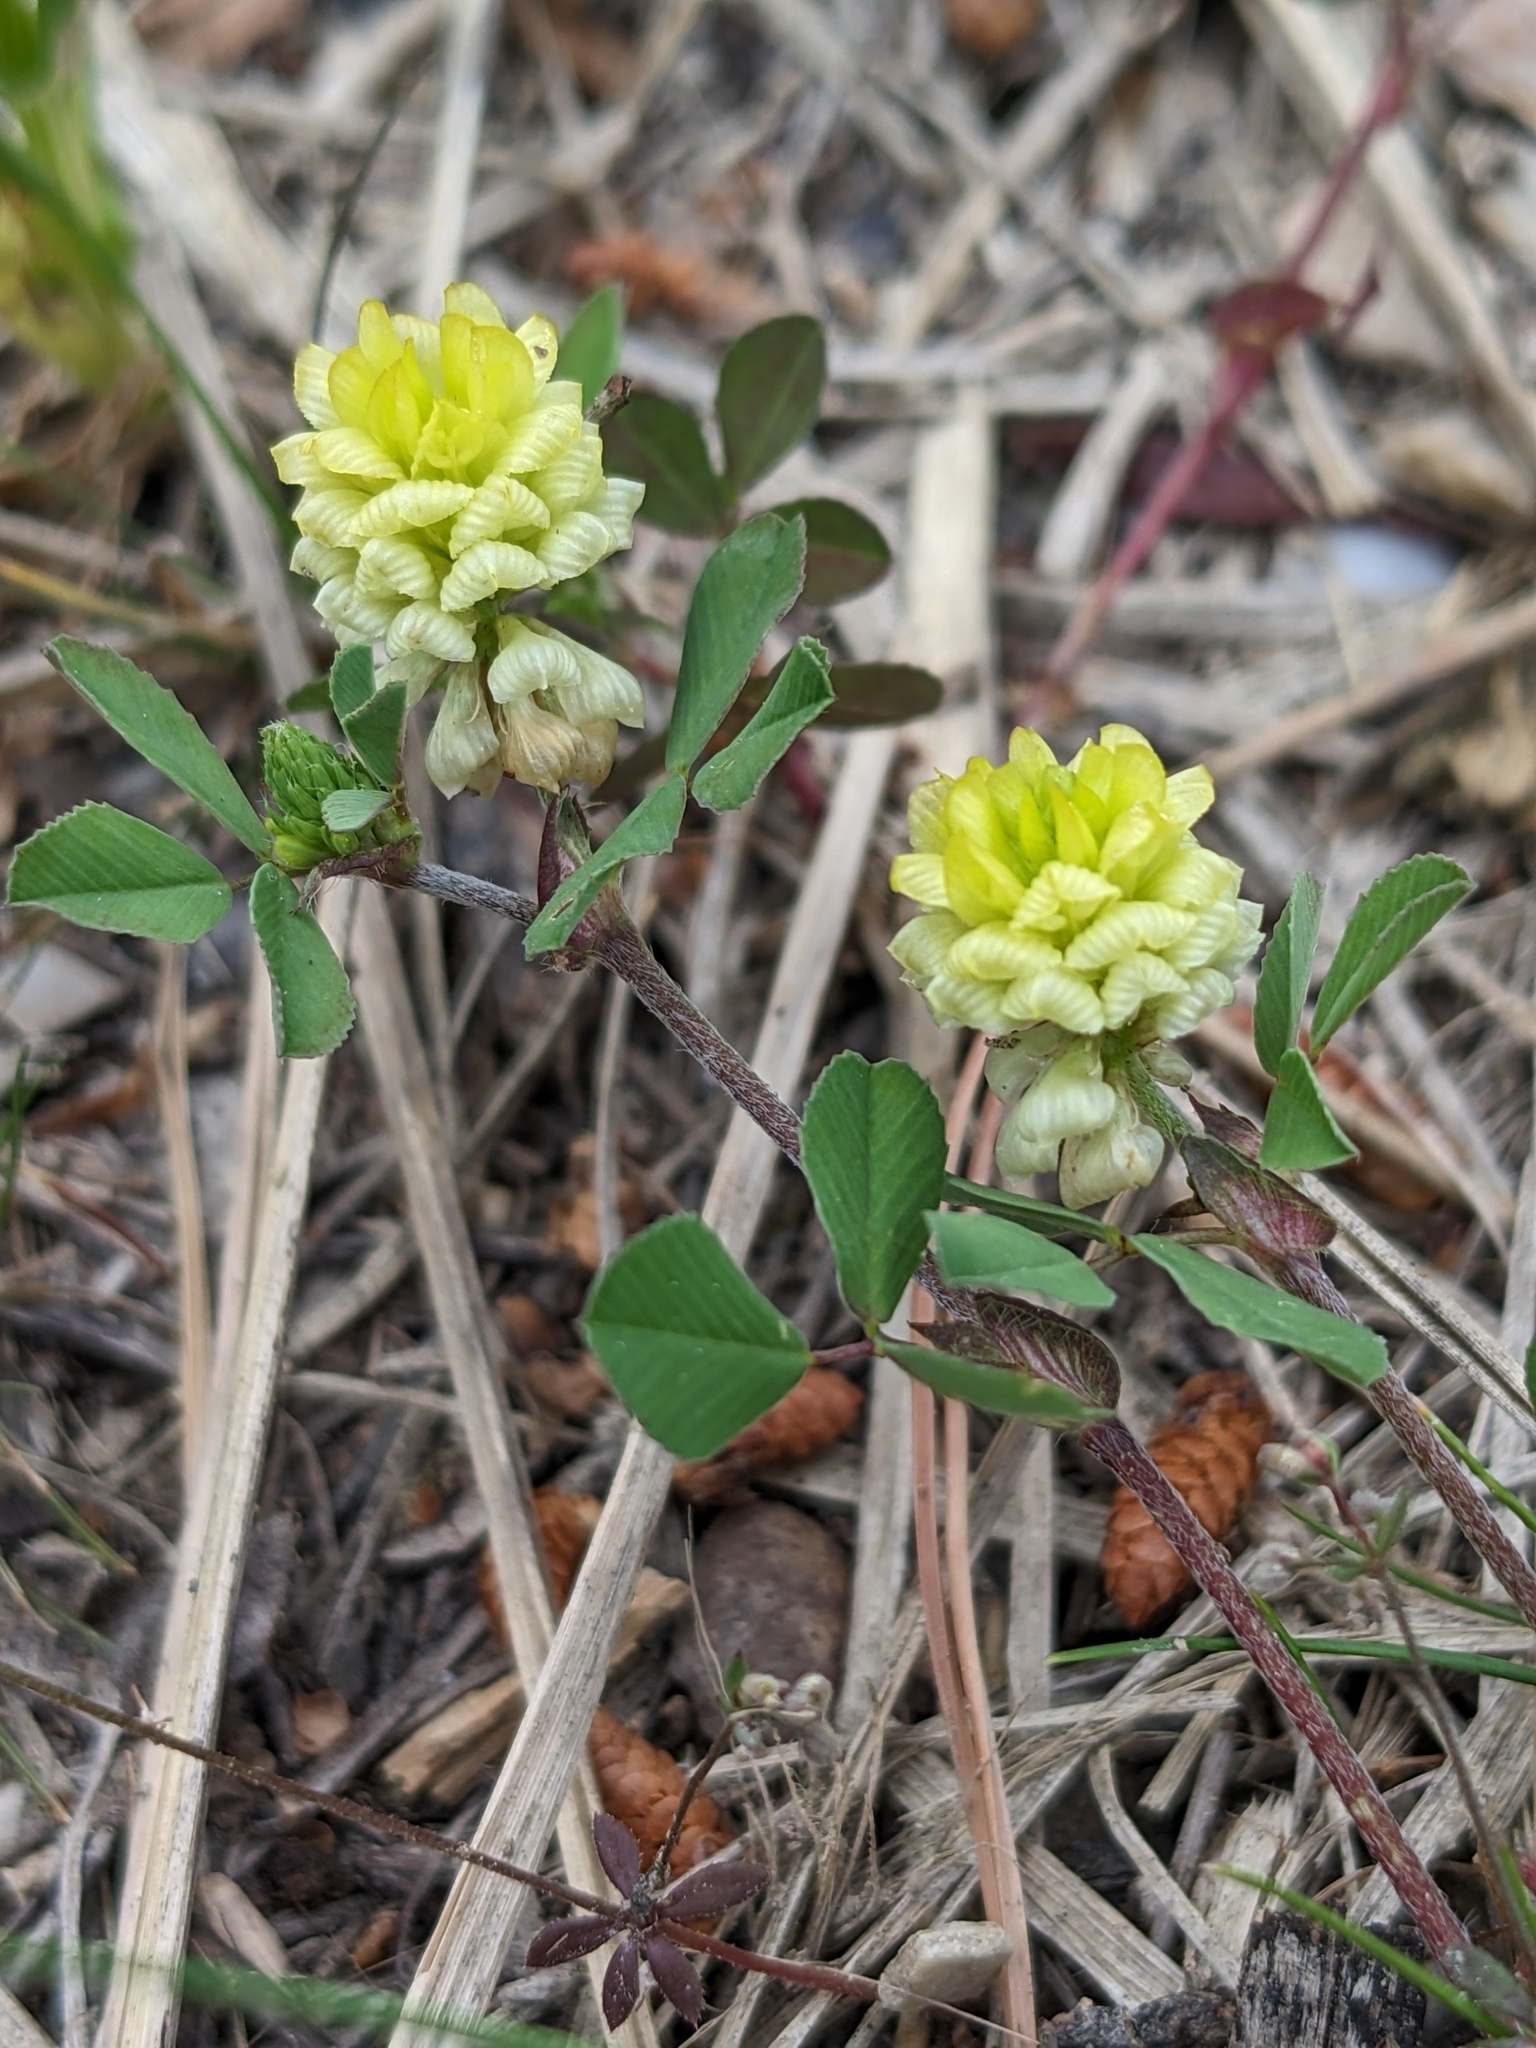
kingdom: Plantae
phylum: Tracheophyta
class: Magnoliopsida
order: Fabales
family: Fabaceae
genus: Trifolium
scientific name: Trifolium campestre
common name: Field clover
